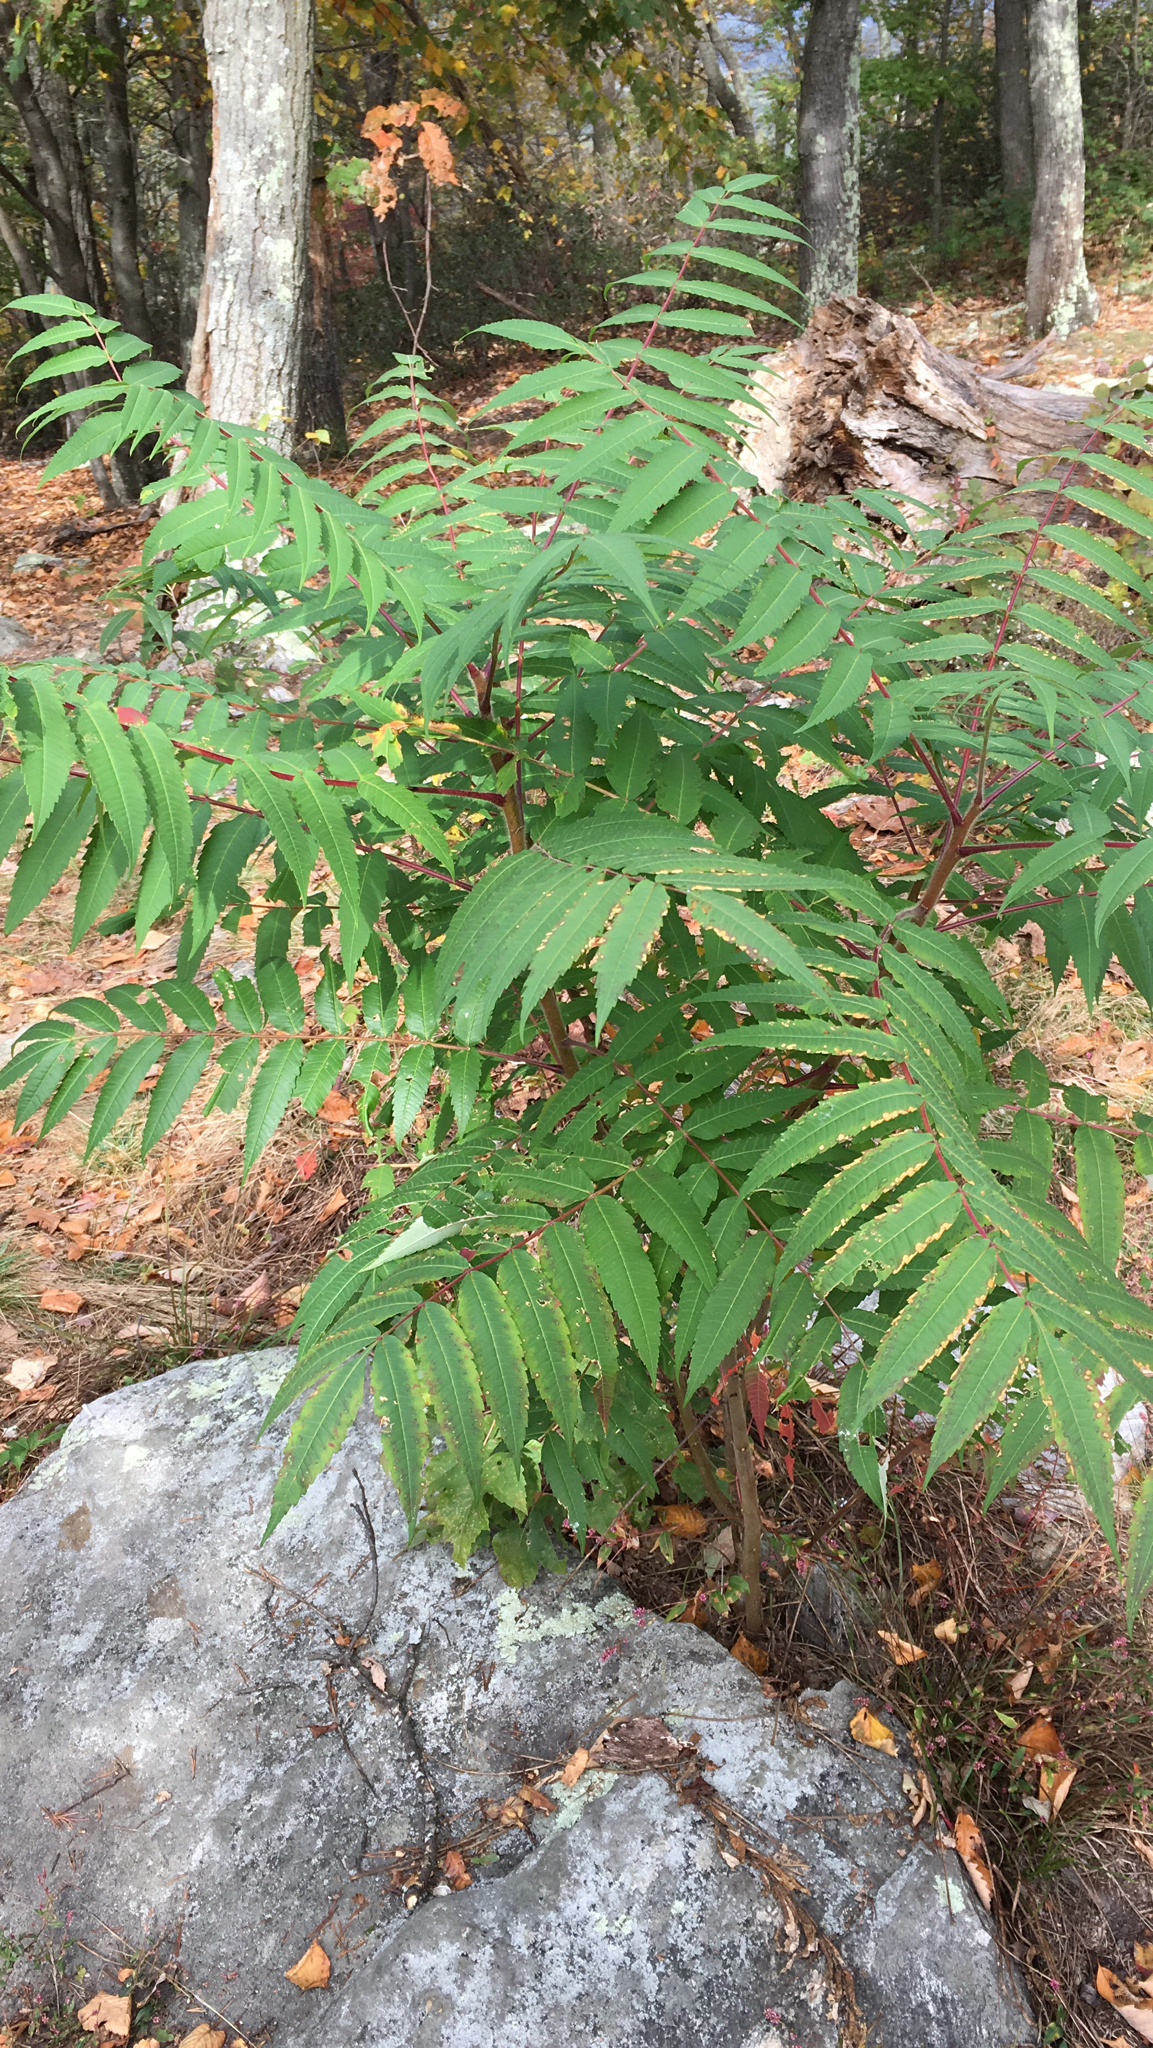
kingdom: Plantae
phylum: Tracheophyta
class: Magnoliopsida
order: Sapindales
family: Anacardiaceae
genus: Rhus
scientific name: Rhus typhina
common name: Staghorn sumac
